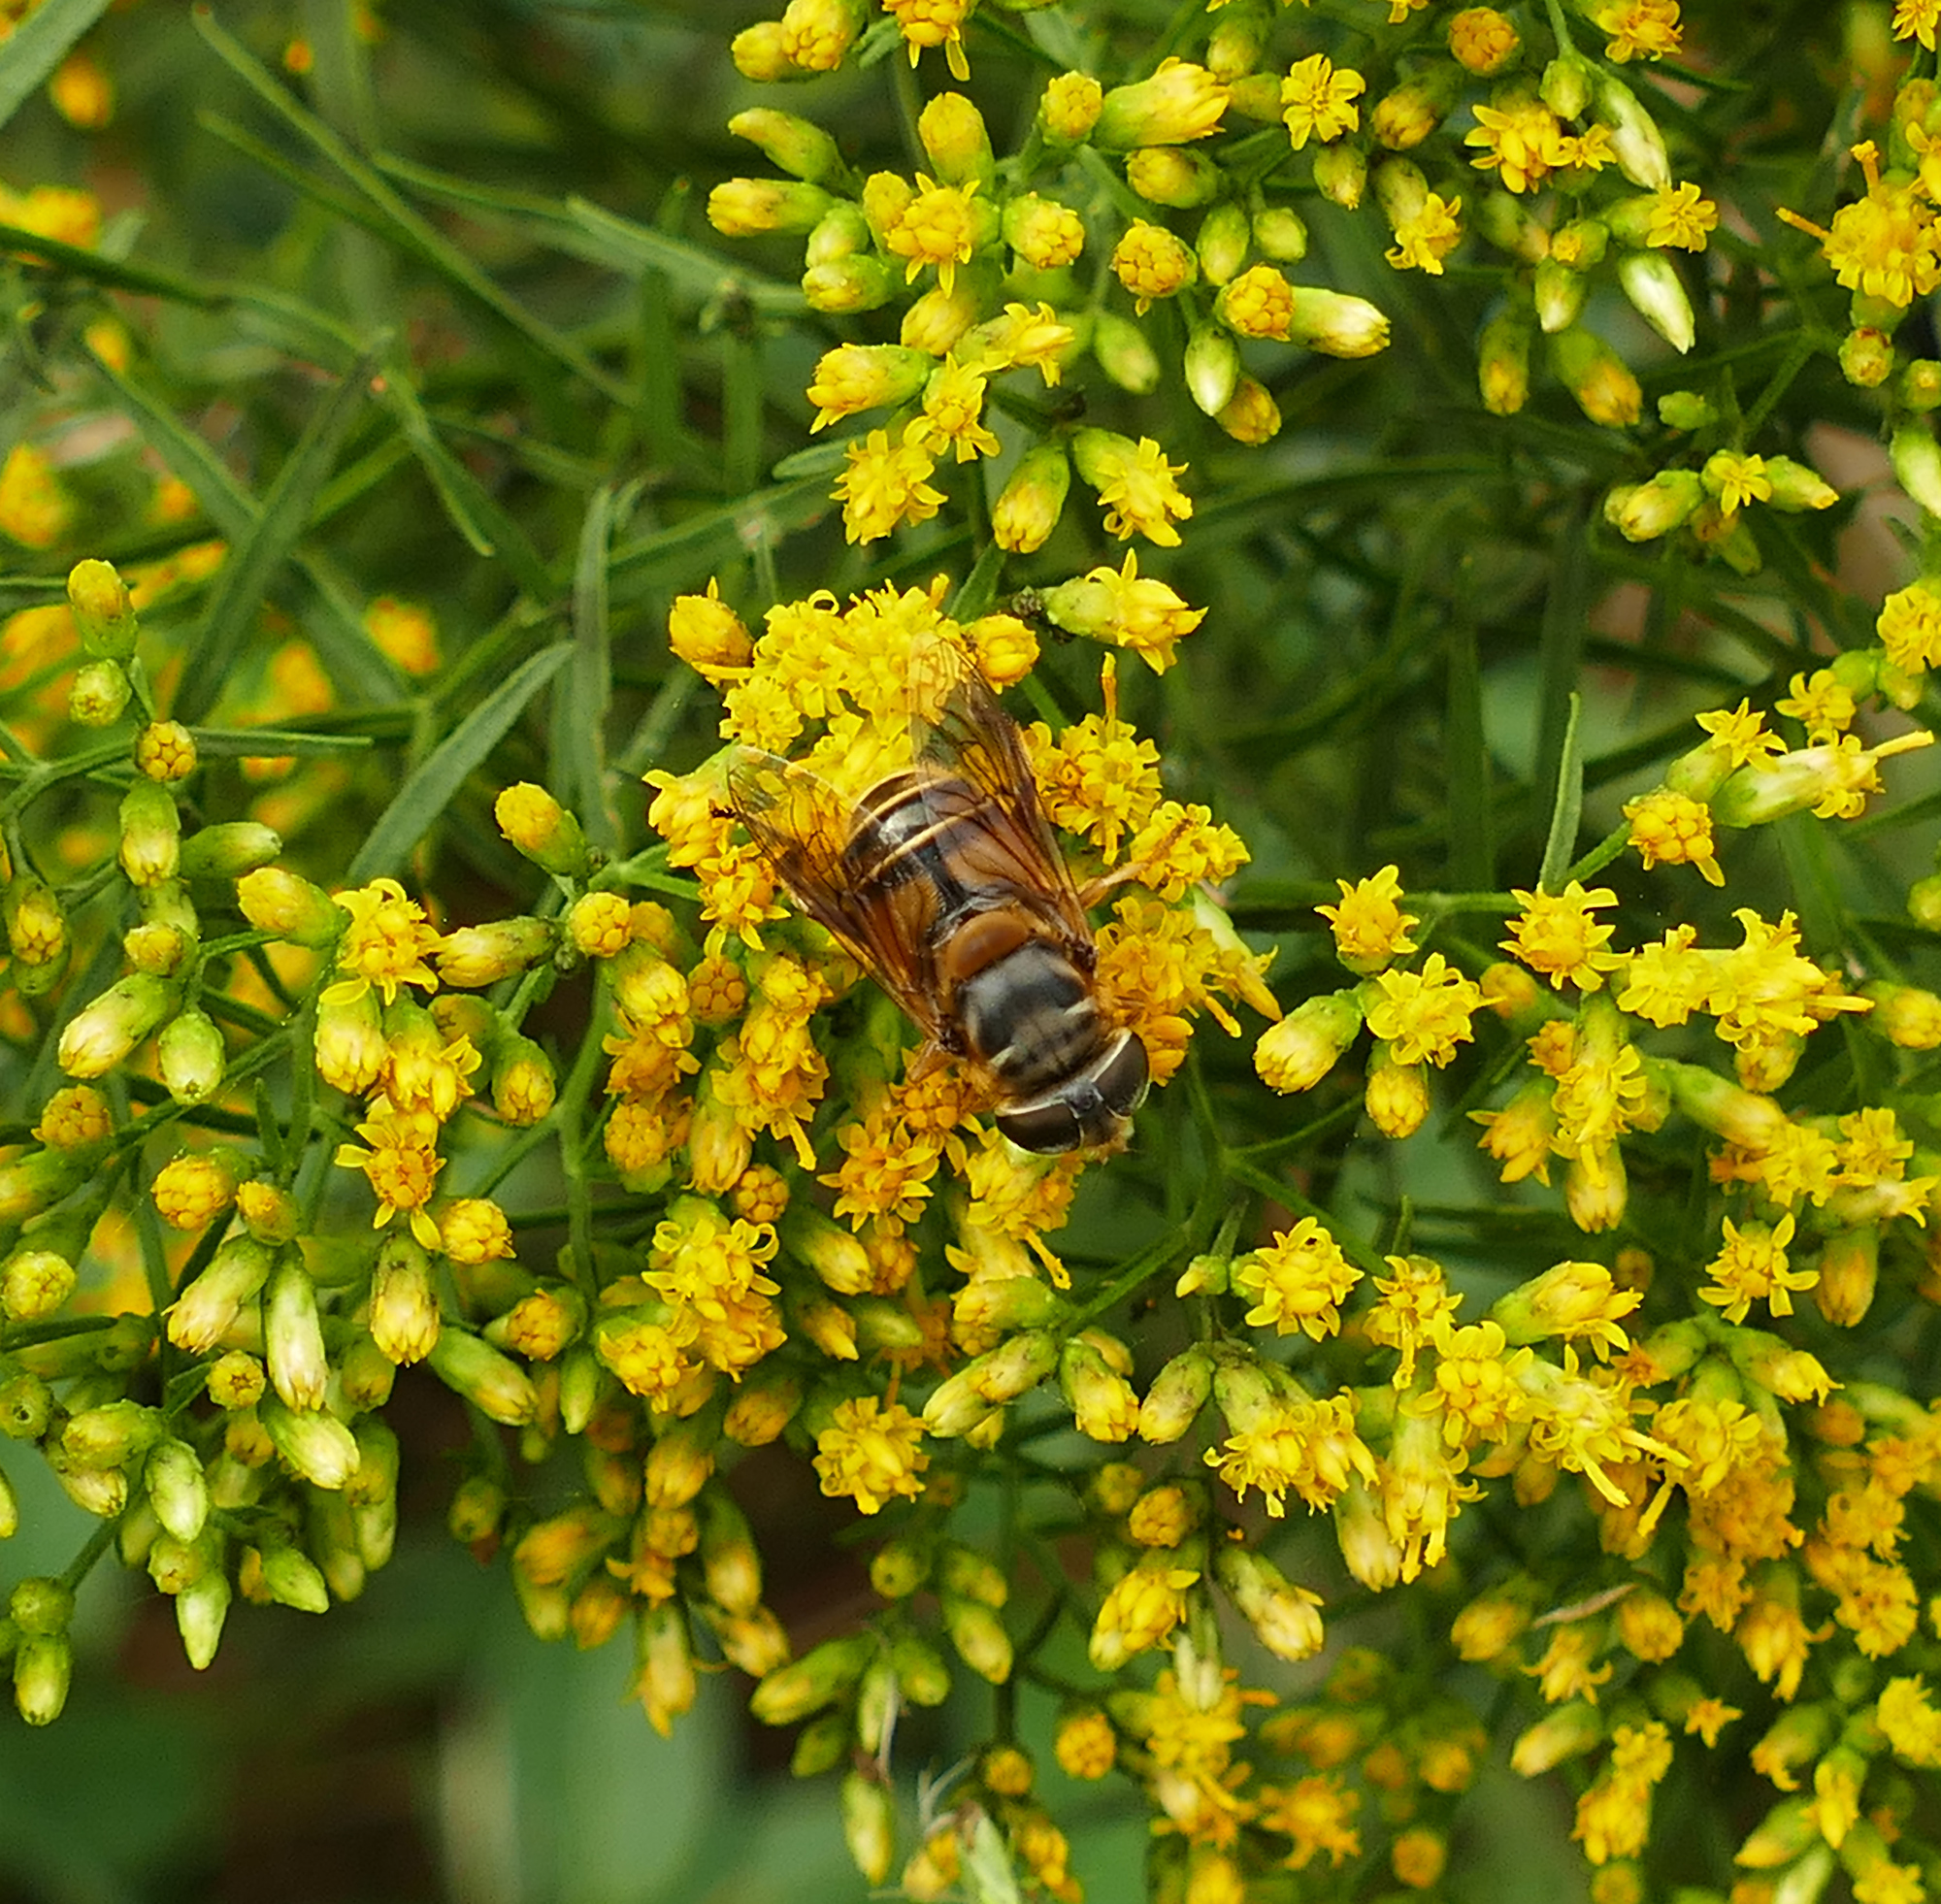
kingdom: Animalia
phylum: Arthropoda
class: Insecta
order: Diptera
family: Syrphidae
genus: Palpada
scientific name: Palpada vinetorum
